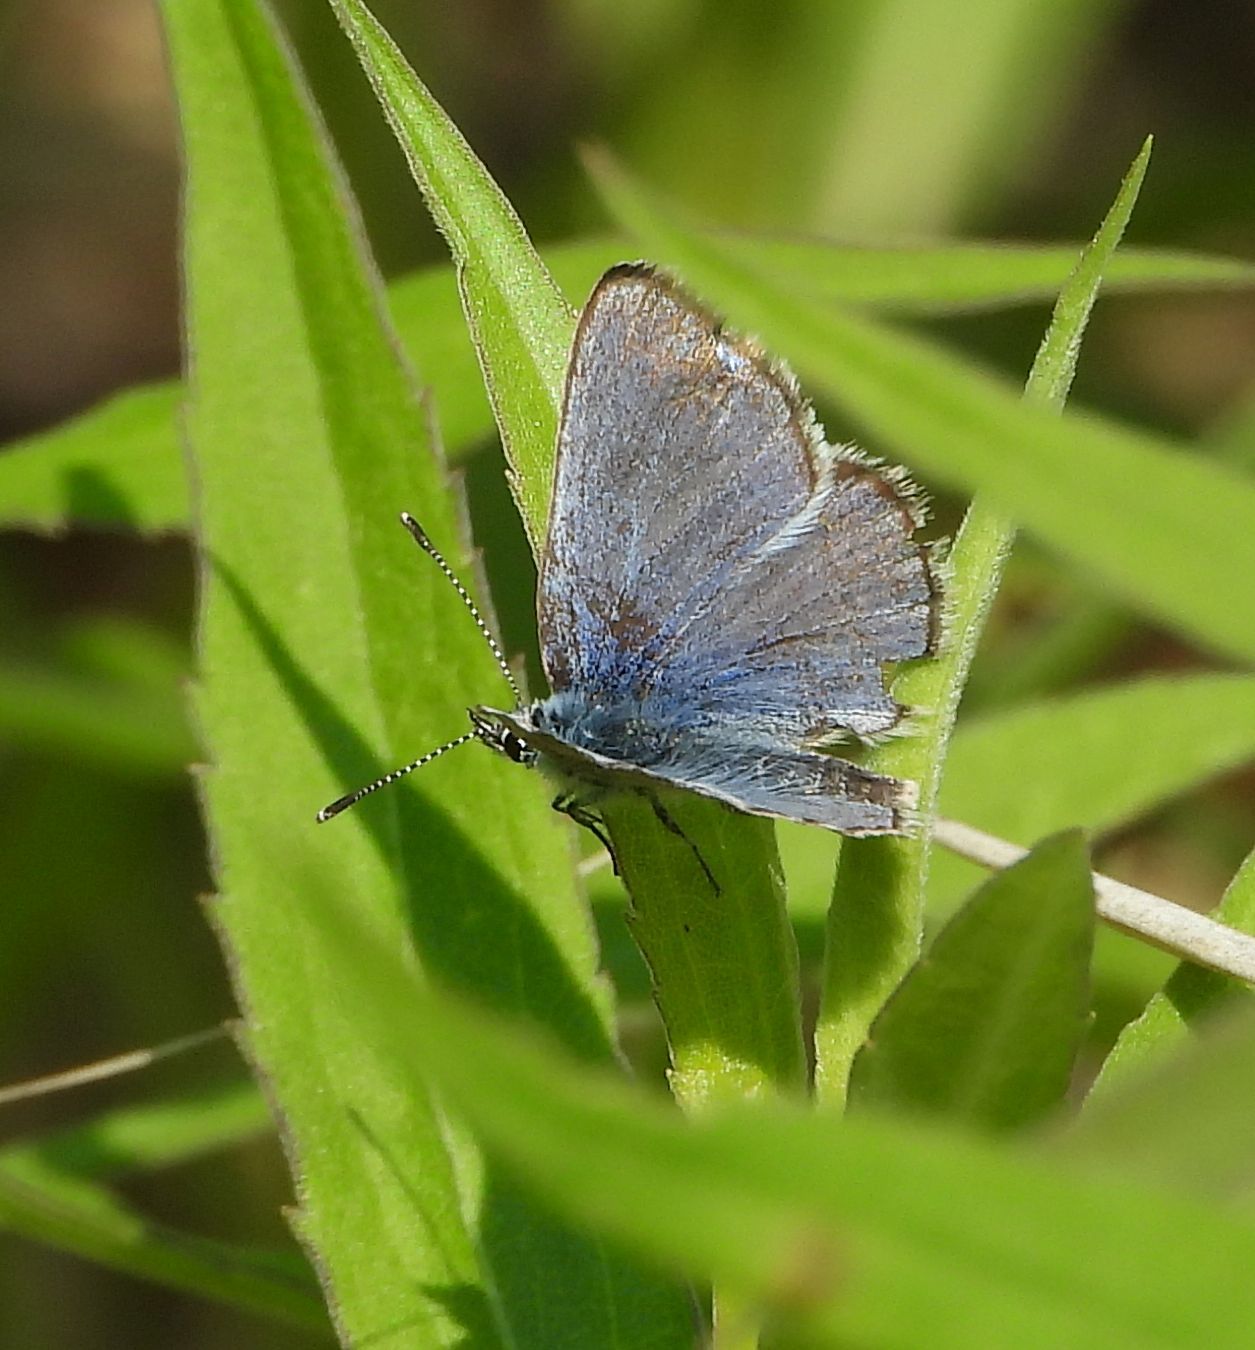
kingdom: Animalia
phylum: Arthropoda
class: Insecta
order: Lepidoptera
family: Lycaenidae
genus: Glaucopsyche
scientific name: Glaucopsyche lygdamus
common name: Silvery blue
